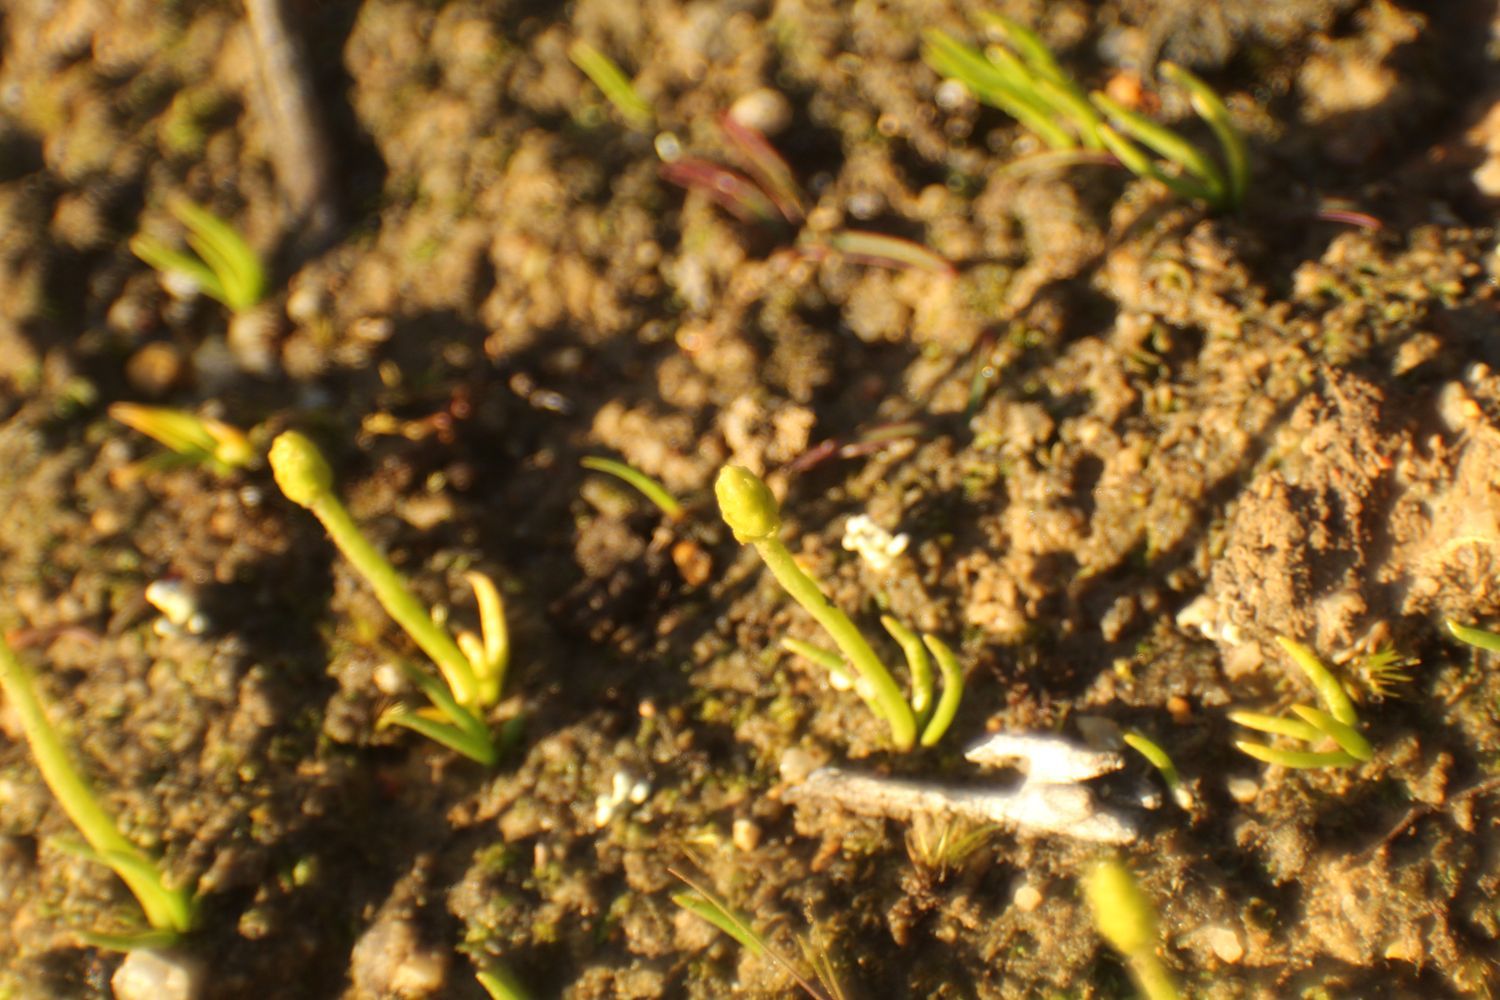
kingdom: Plantae
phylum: Tracheophyta
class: Lycopodiopsida
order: Lycopodiales
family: Lycopodiaceae
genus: Phylloglossum
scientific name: Phylloglossum drummondii
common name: Pigmy-club-moss
